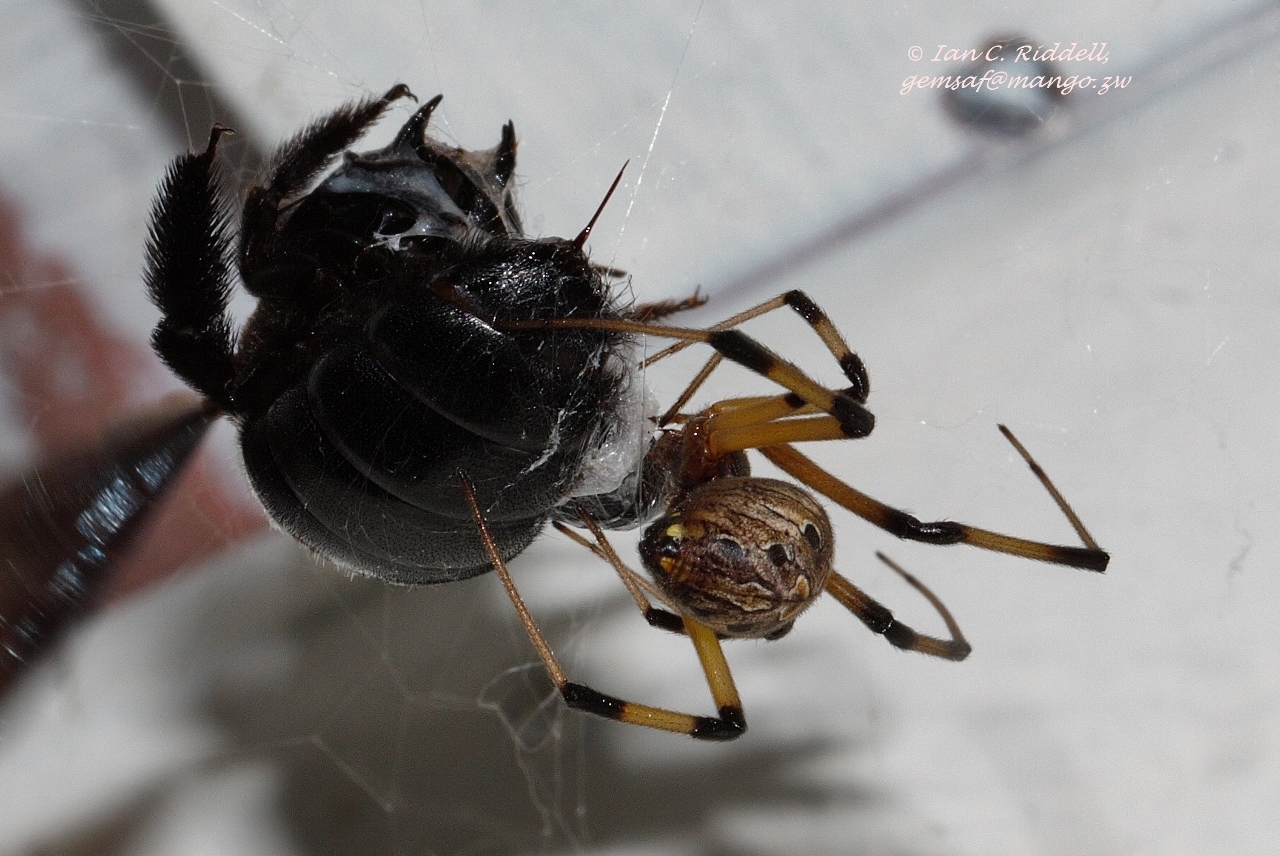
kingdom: Animalia
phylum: Arthropoda
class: Arachnida
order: Araneae
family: Theridiidae
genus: Latrodectus
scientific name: Latrodectus geometricus
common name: Brown widow spider
